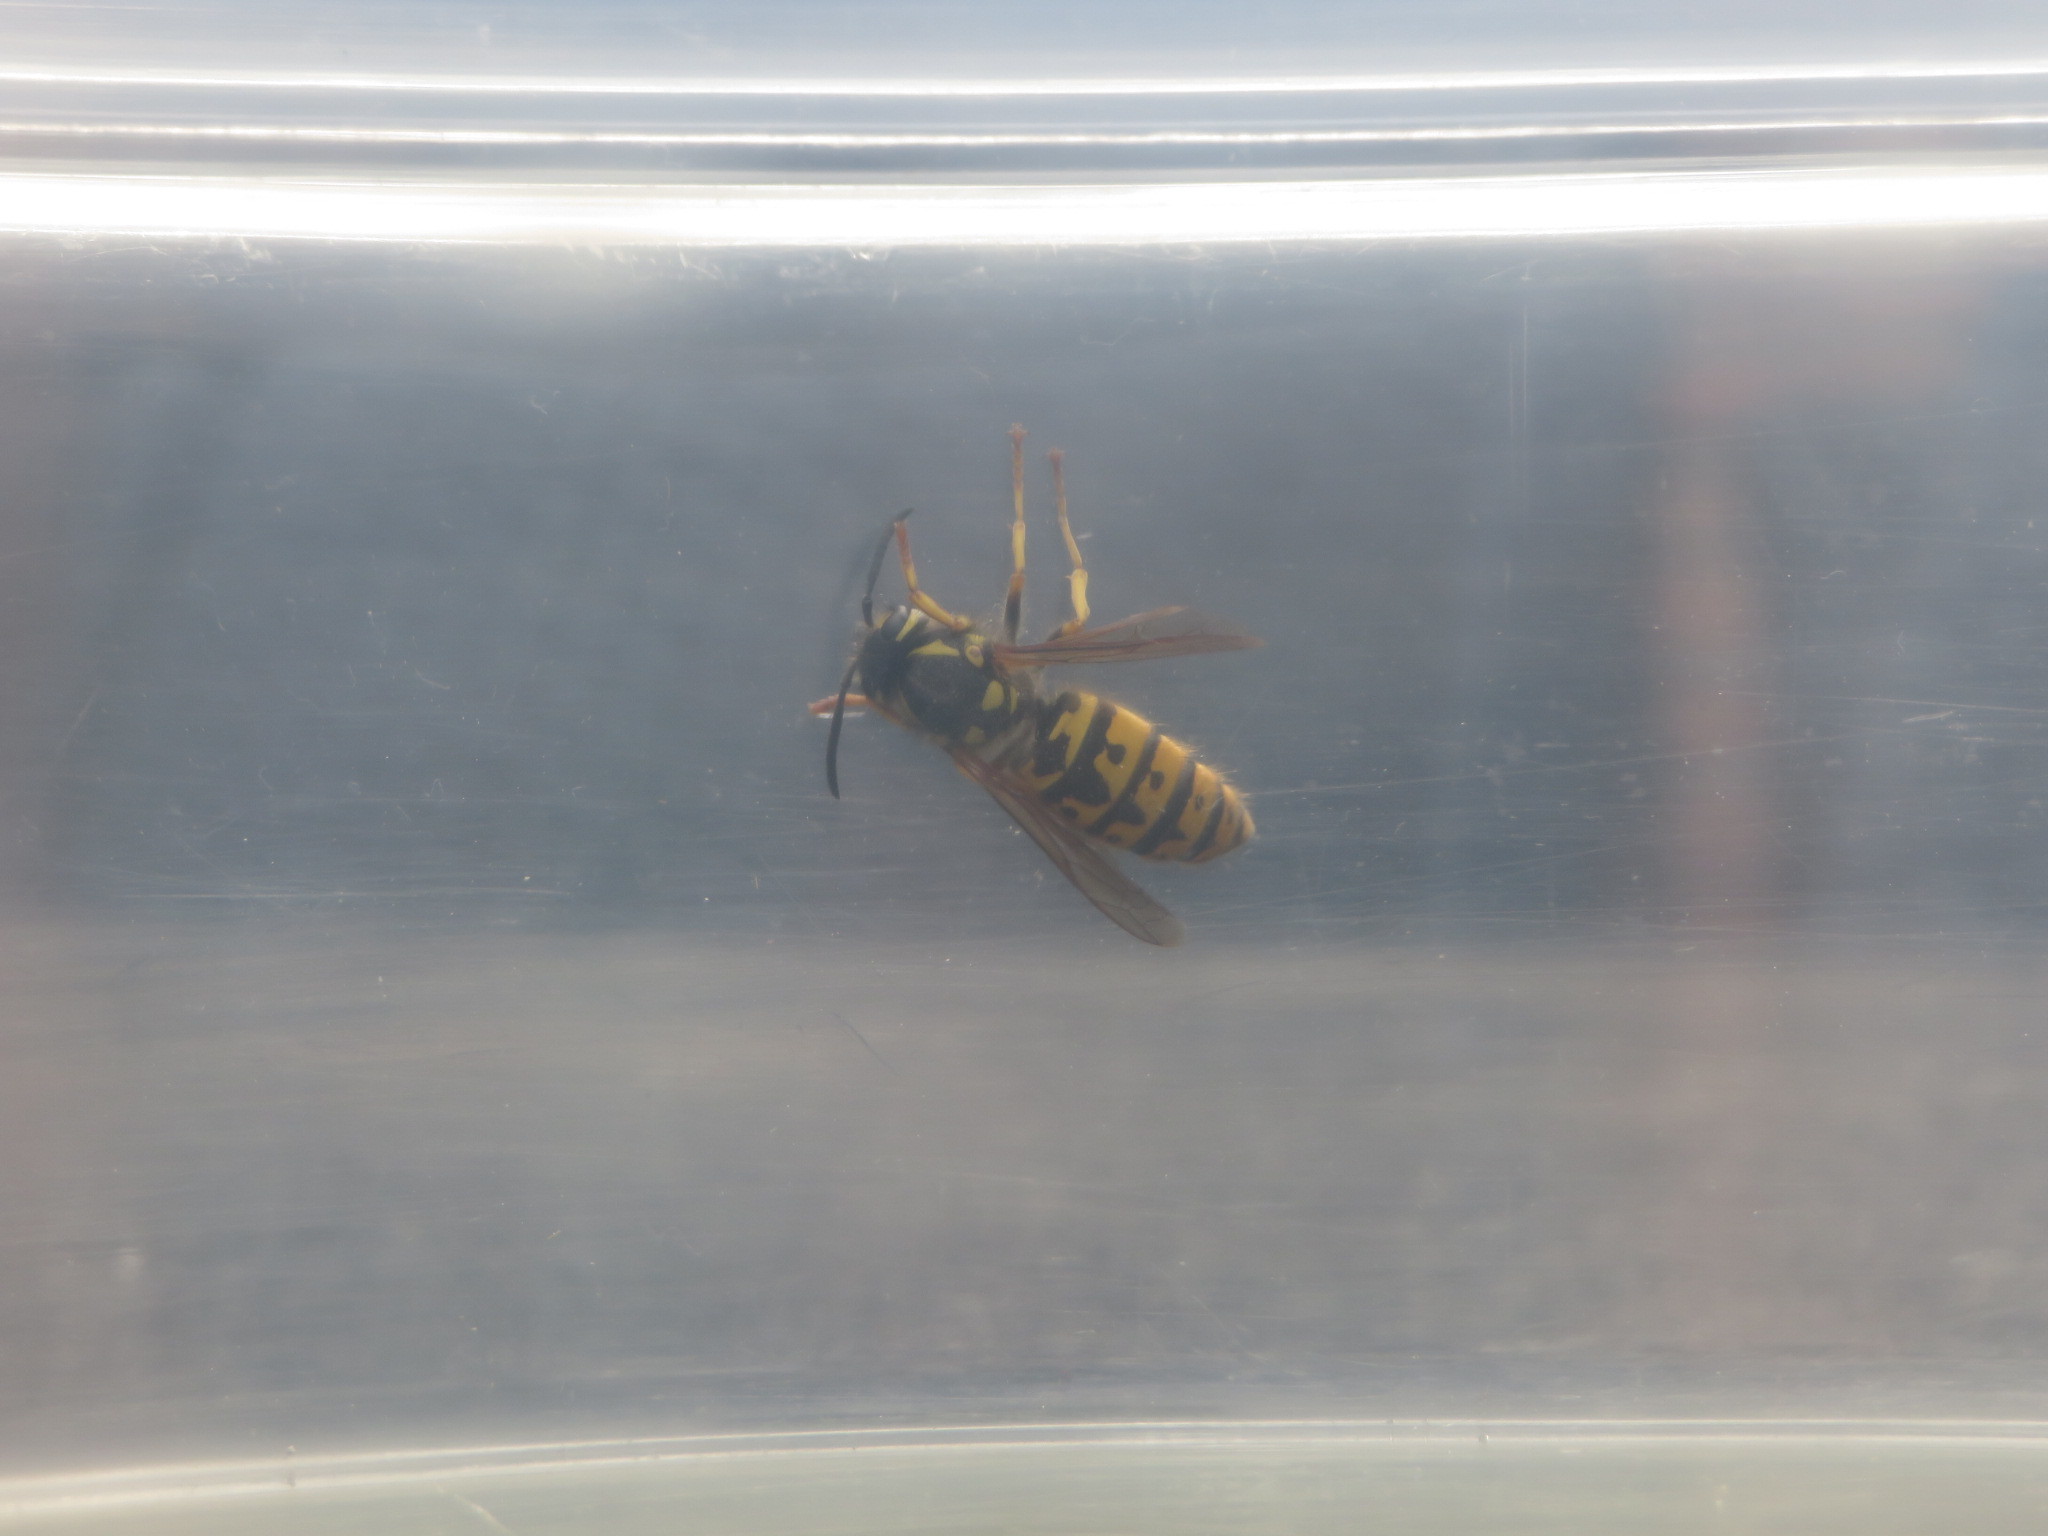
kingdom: Animalia
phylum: Arthropoda
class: Insecta
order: Hymenoptera
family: Vespidae
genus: Vespula
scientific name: Vespula germanica
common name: German wasp
